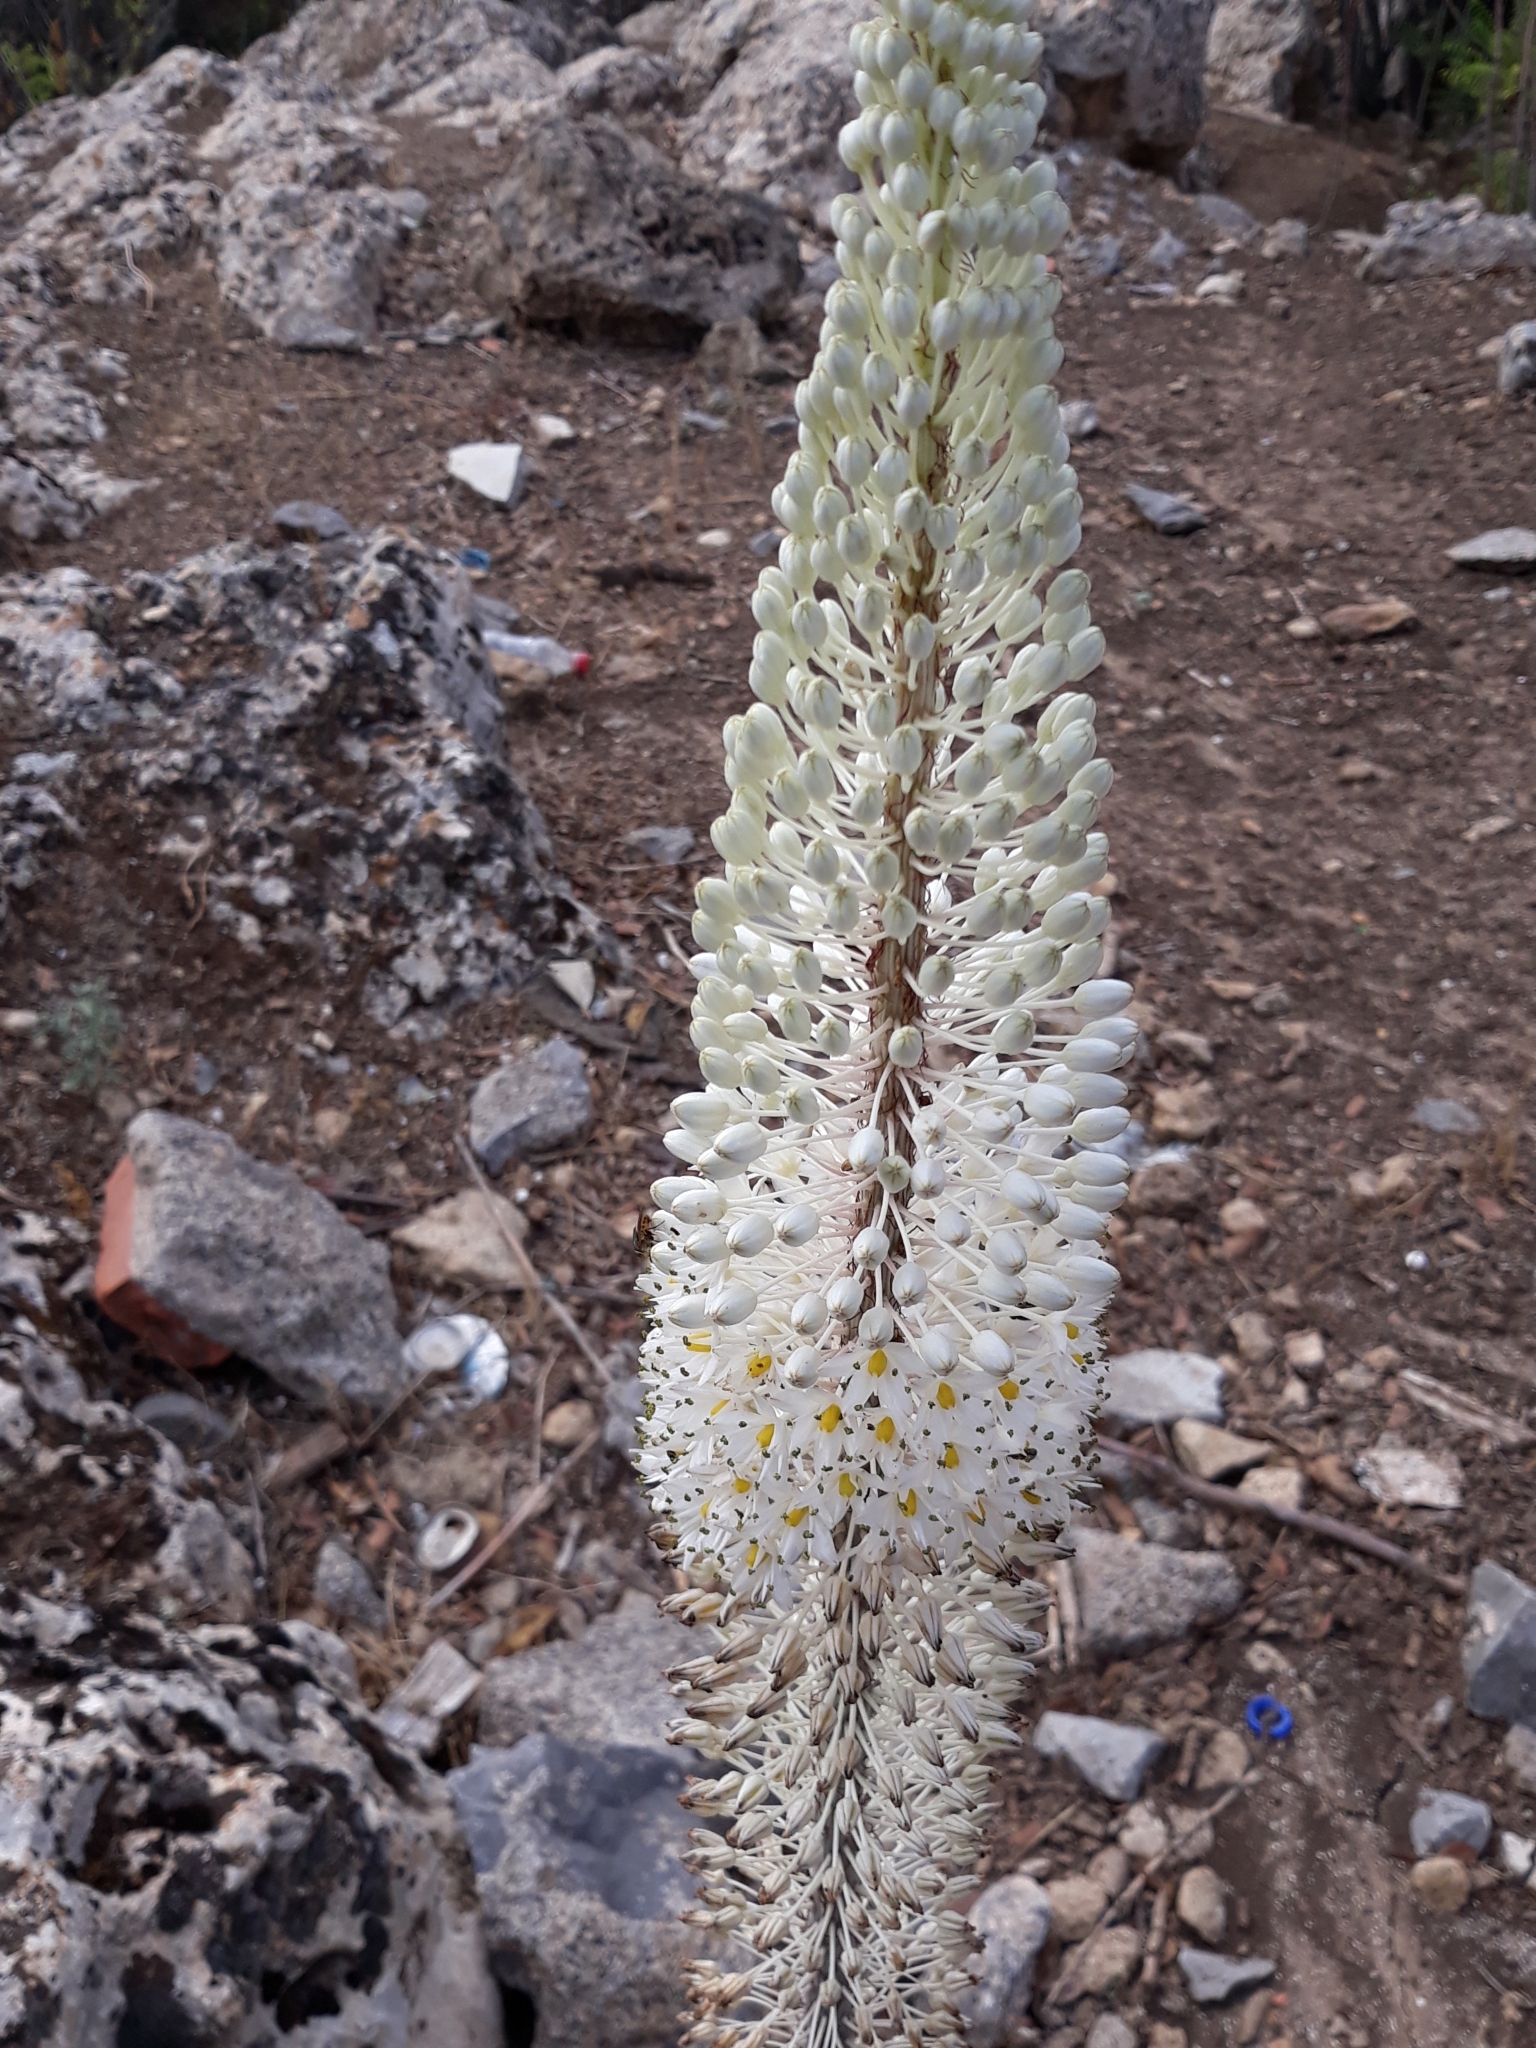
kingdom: Plantae
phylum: Tracheophyta
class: Liliopsida
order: Asparagales
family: Asparagaceae
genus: Drimia
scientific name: Drimia numidica
